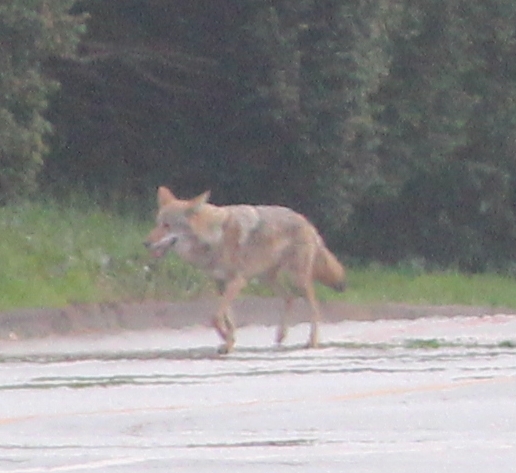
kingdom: Animalia
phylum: Chordata
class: Mammalia
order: Carnivora
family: Canidae
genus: Canis
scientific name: Canis latrans
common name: Coyote
